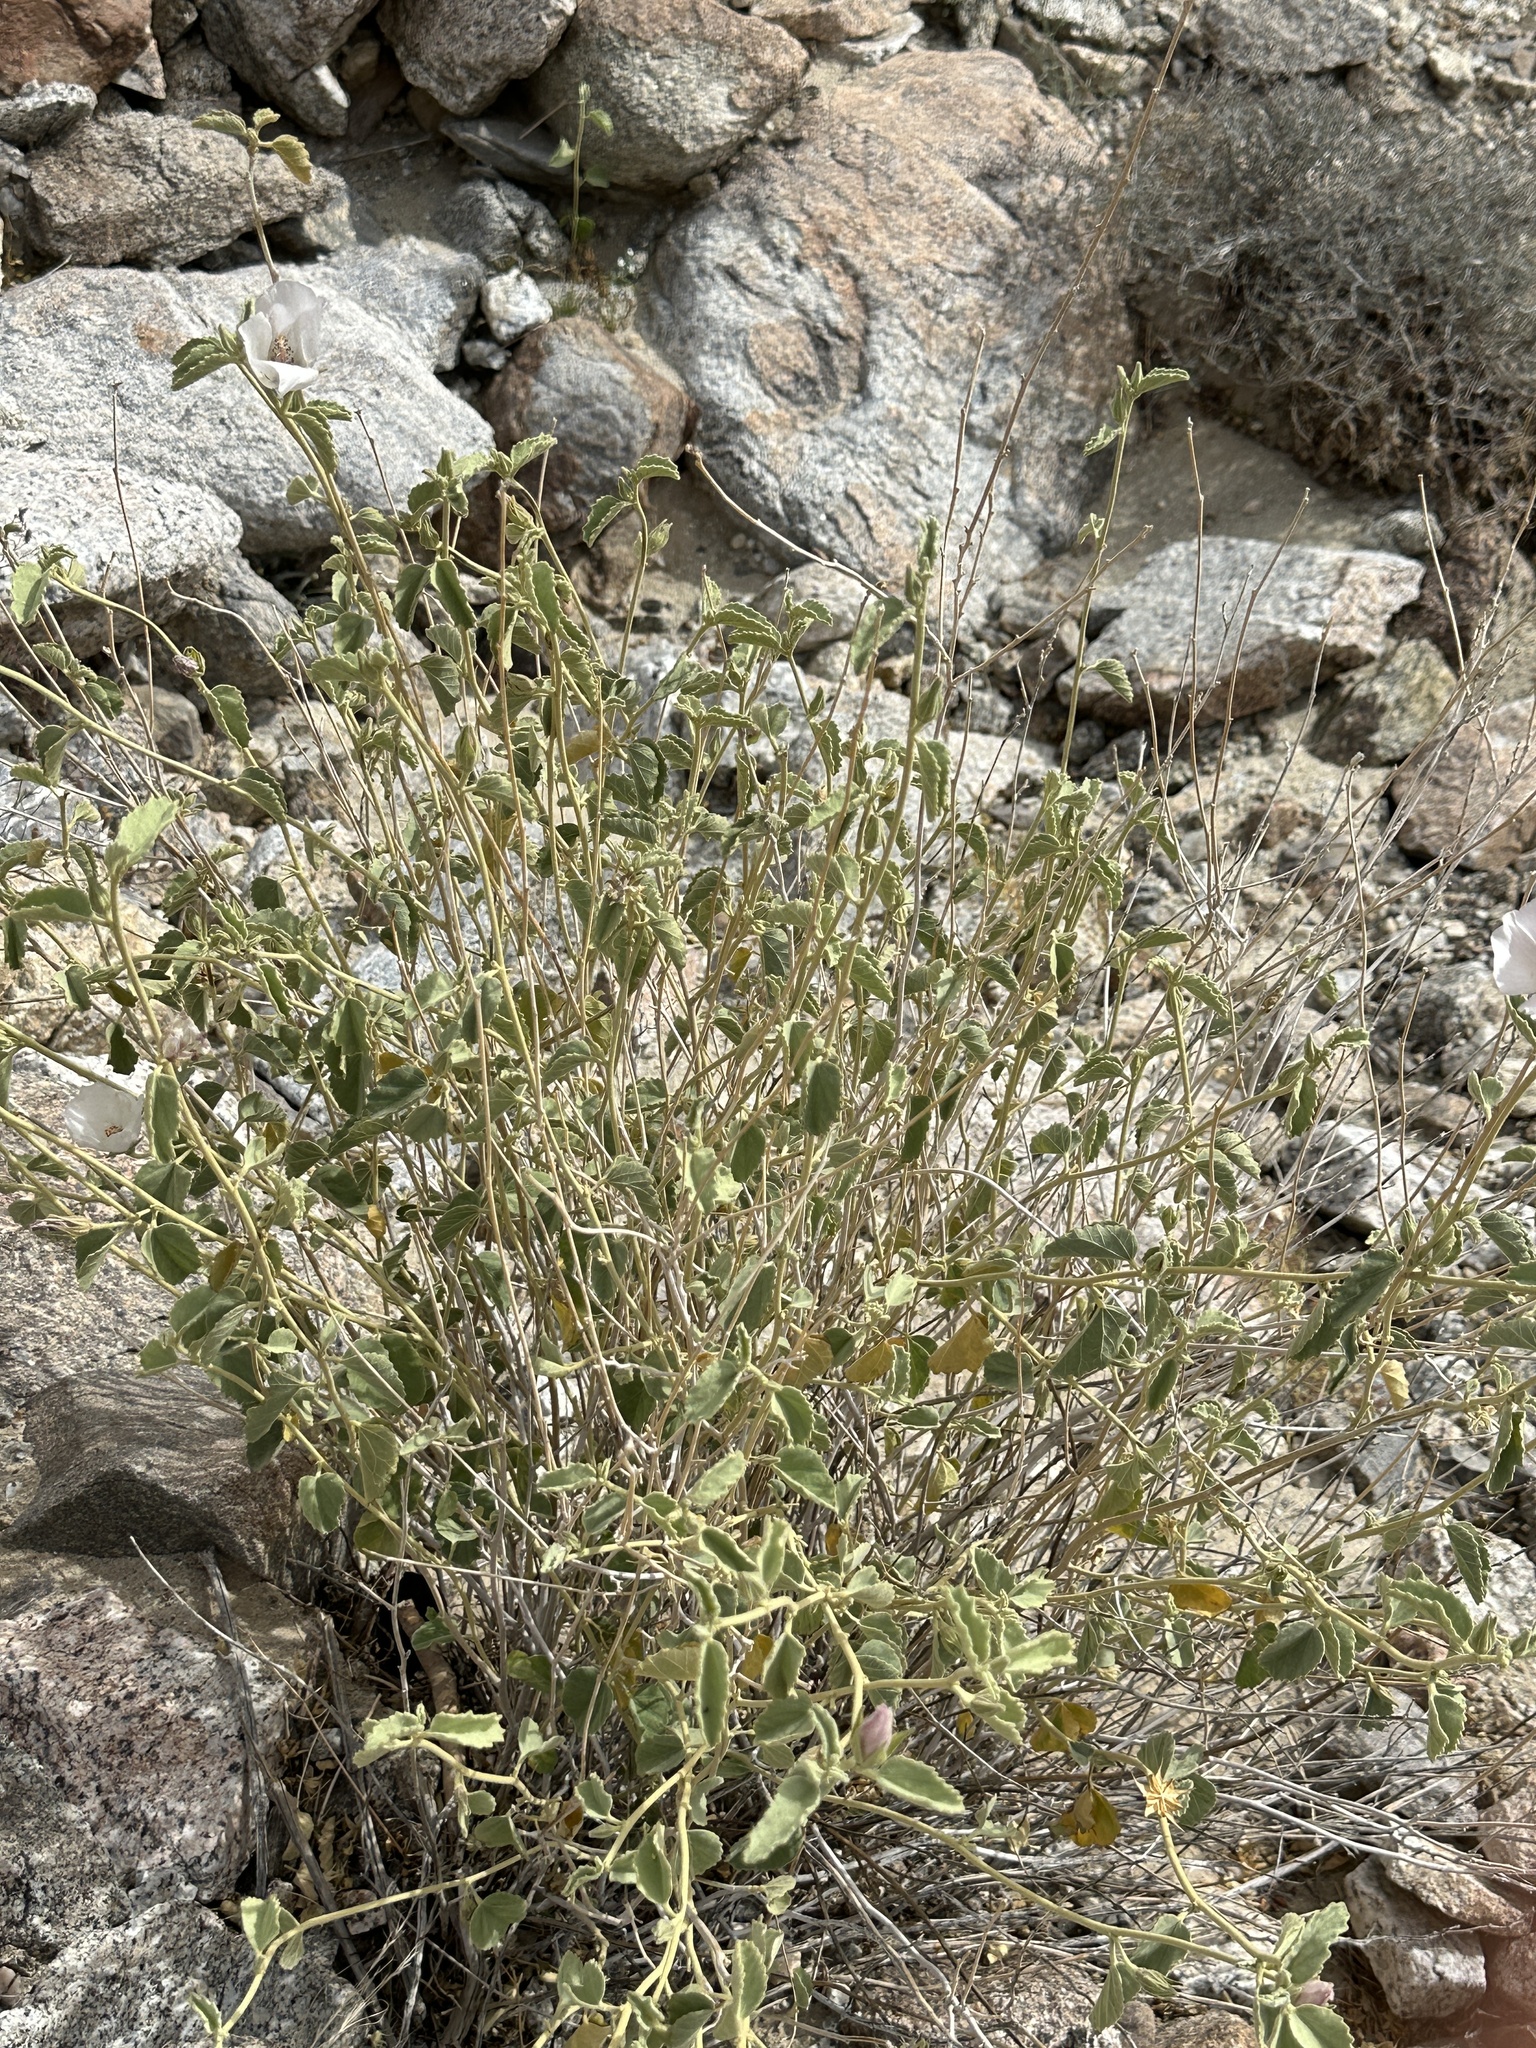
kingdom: Plantae
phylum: Tracheophyta
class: Magnoliopsida
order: Malvales
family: Malvaceae
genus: Hibiscus
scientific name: Hibiscus denudatus
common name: Paleface
